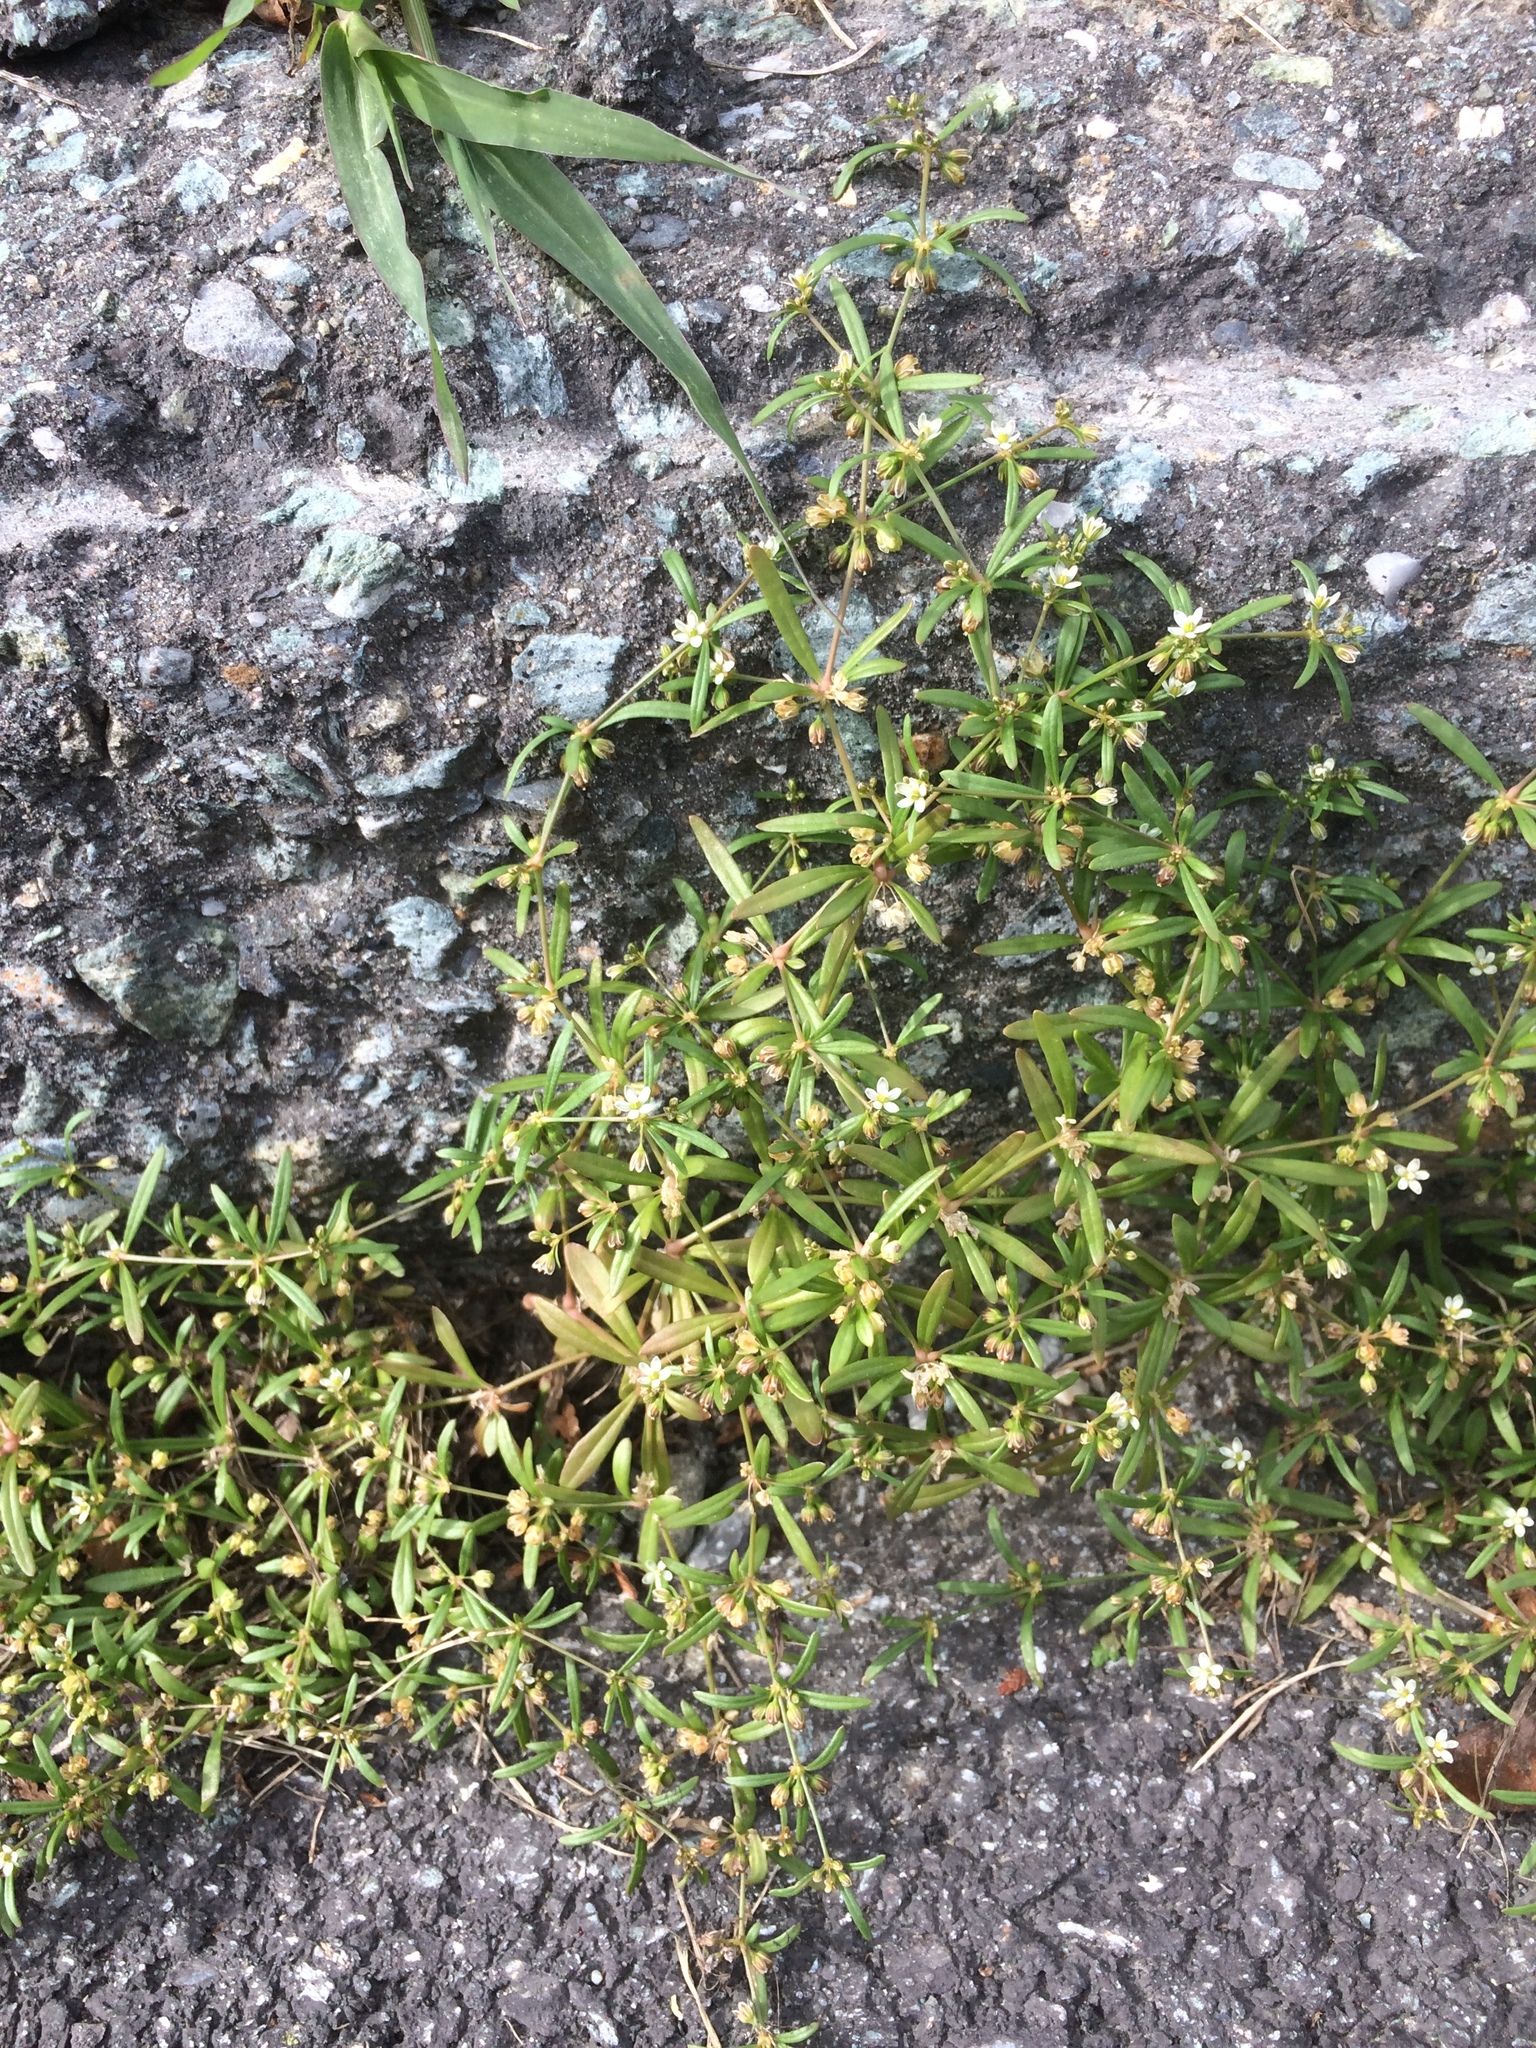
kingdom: Plantae
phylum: Tracheophyta
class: Magnoliopsida
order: Caryophyllales
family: Molluginaceae
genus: Mollugo
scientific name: Mollugo verticillata
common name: Green carpetweed
